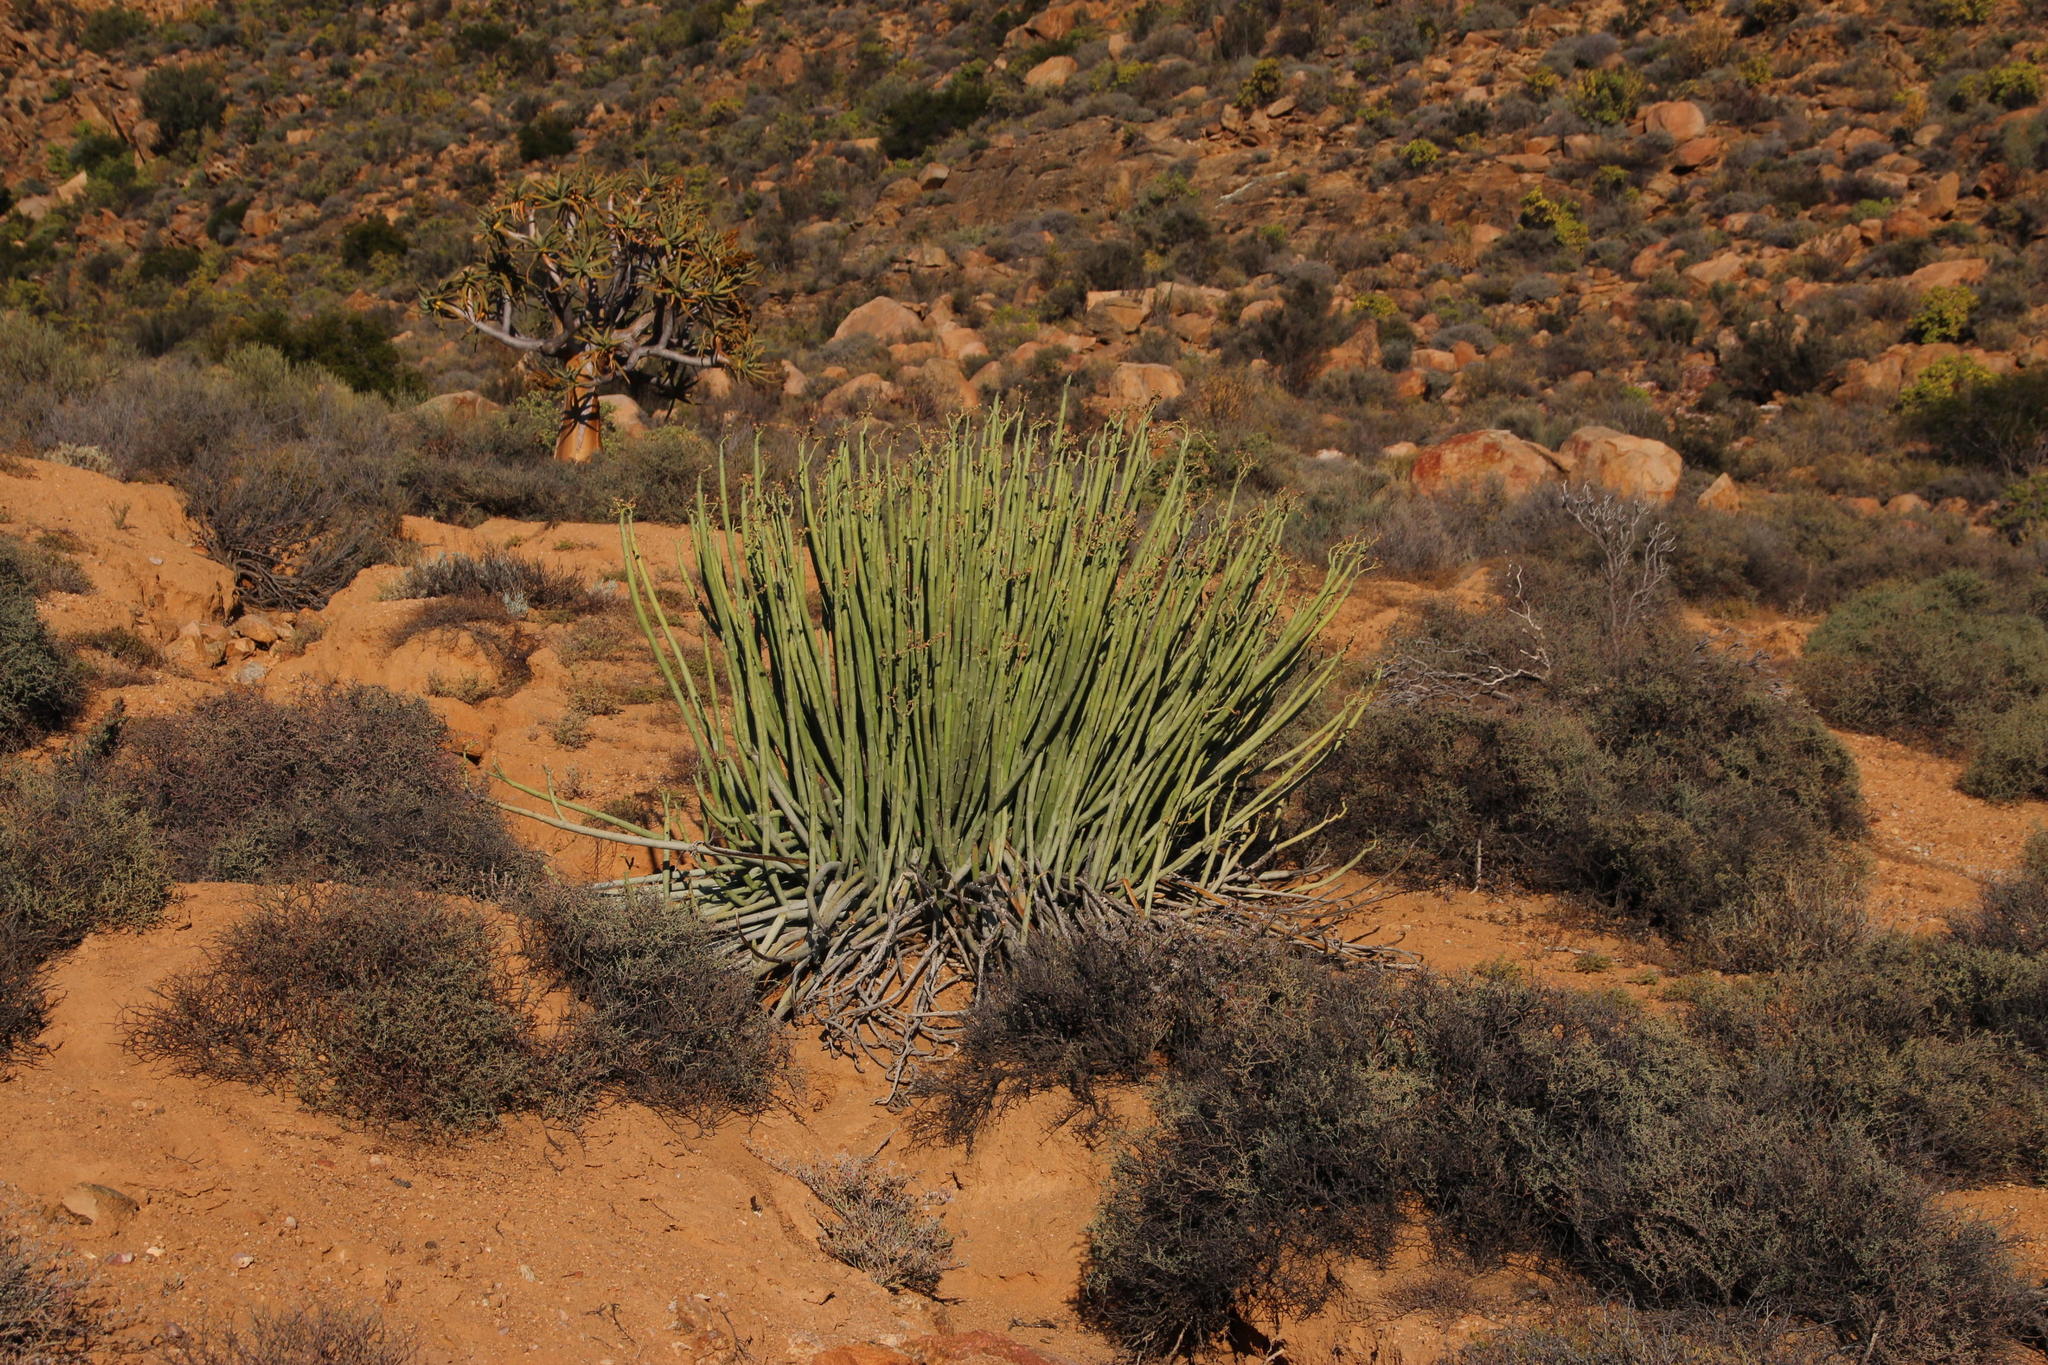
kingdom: Plantae
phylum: Tracheophyta
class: Magnoliopsida
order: Malpighiales
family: Euphorbiaceae
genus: Euphorbia
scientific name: Euphorbia dregeana
